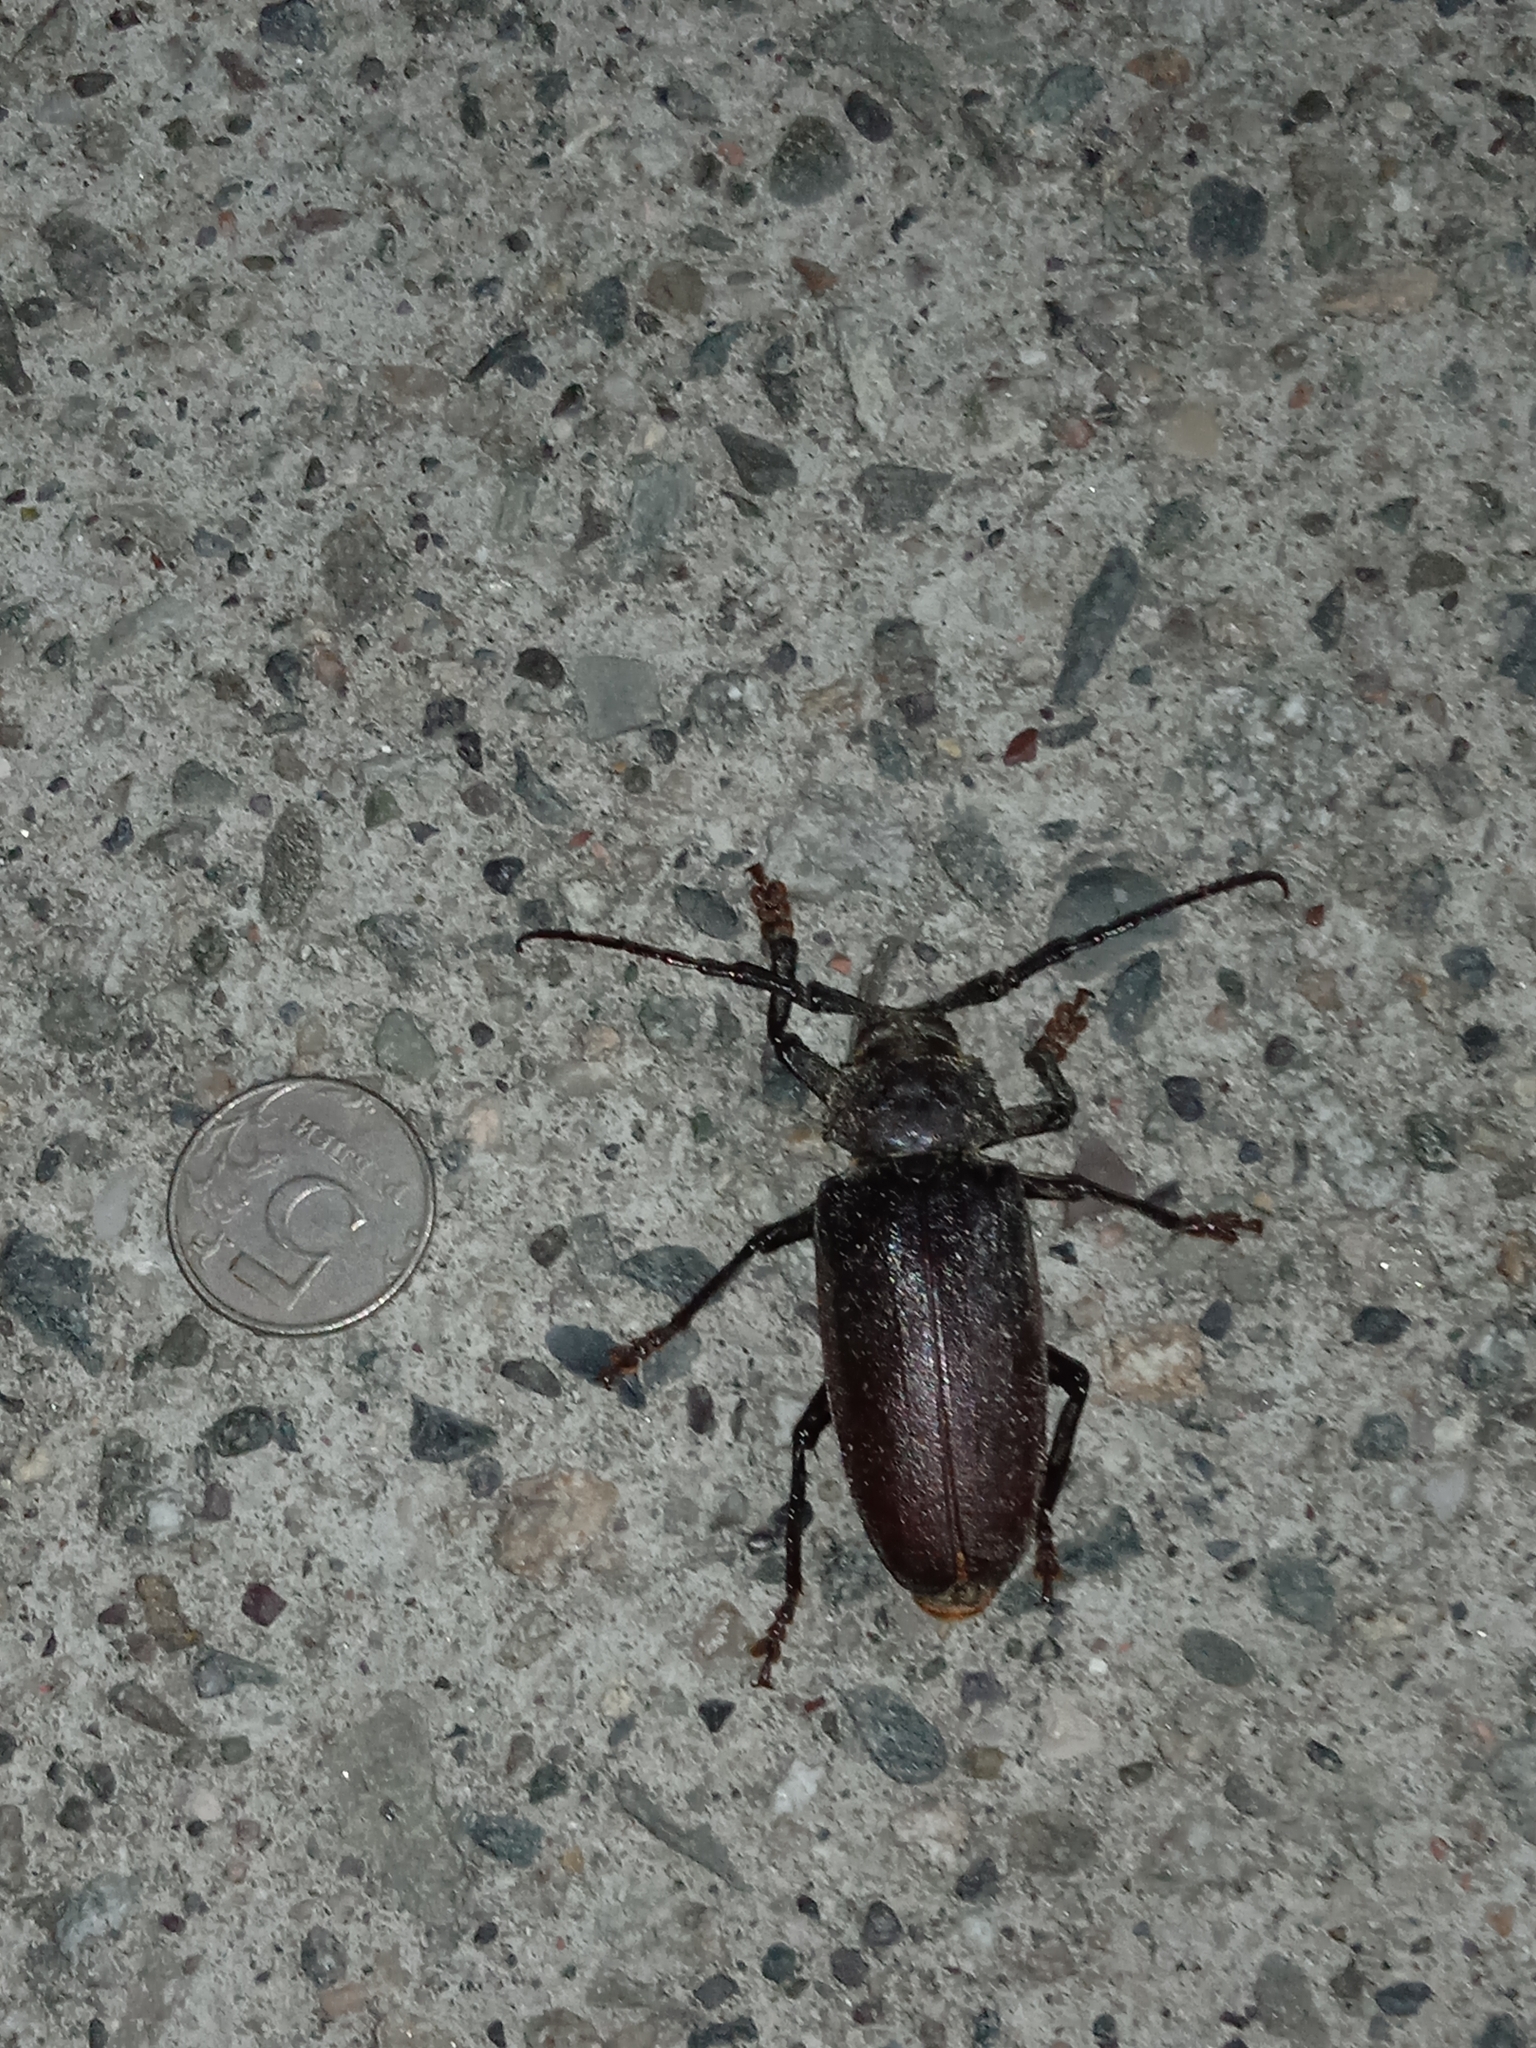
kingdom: Animalia
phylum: Arthropoda
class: Insecta
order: Coleoptera
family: Cerambycidae
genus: Rhaesus
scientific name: Rhaesus serraticollis
